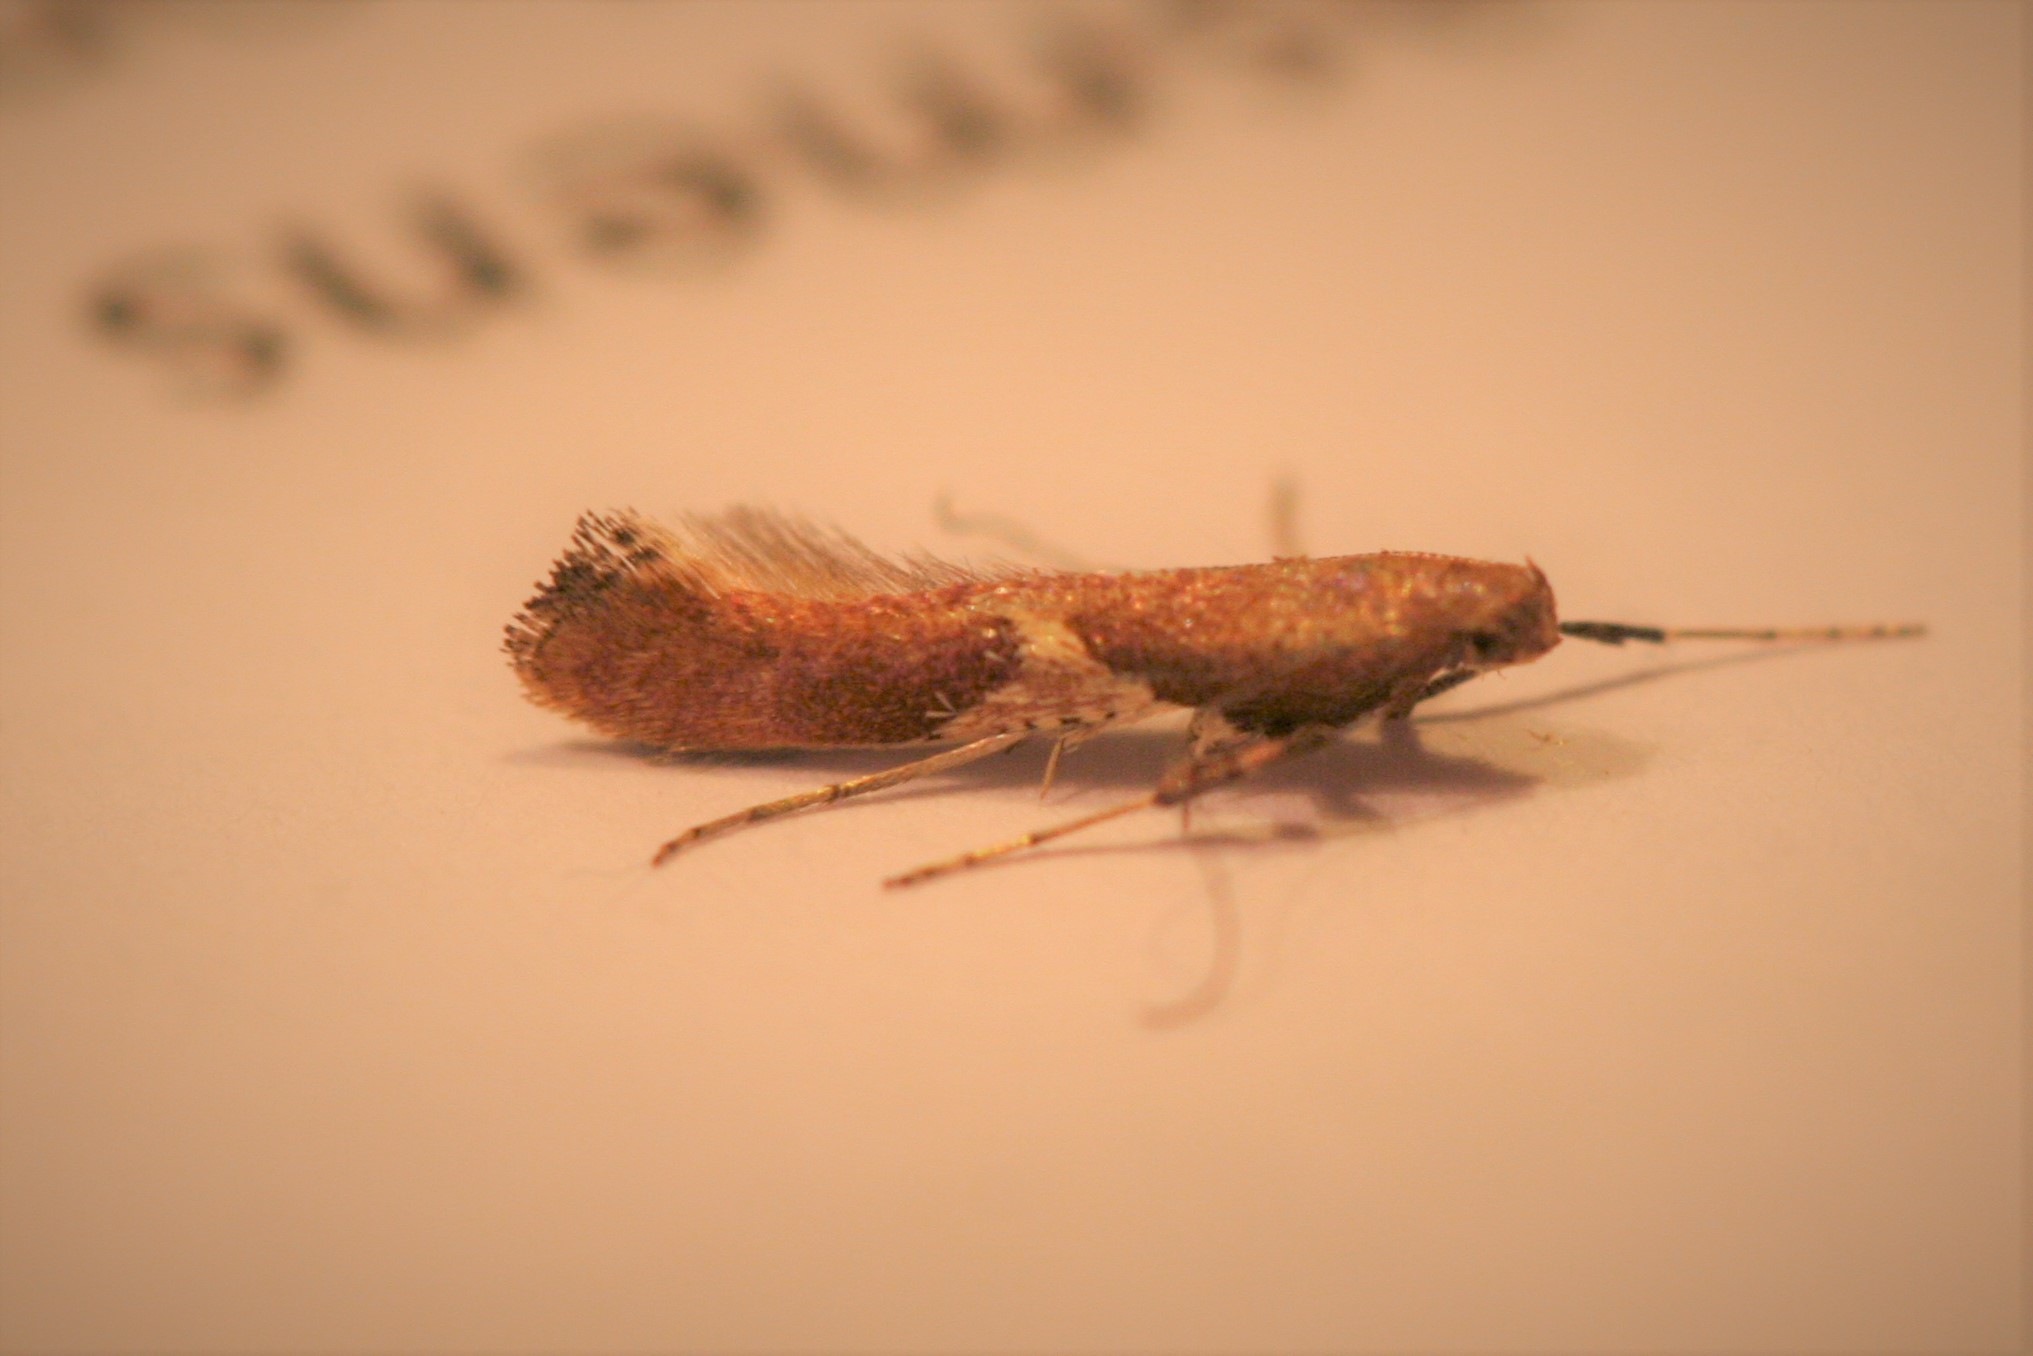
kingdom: Animalia
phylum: Arthropoda
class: Insecta
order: Lepidoptera
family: Gracillariidae
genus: Caloptilia
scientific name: Caloptilia stigmatella
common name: White-triangle slender
